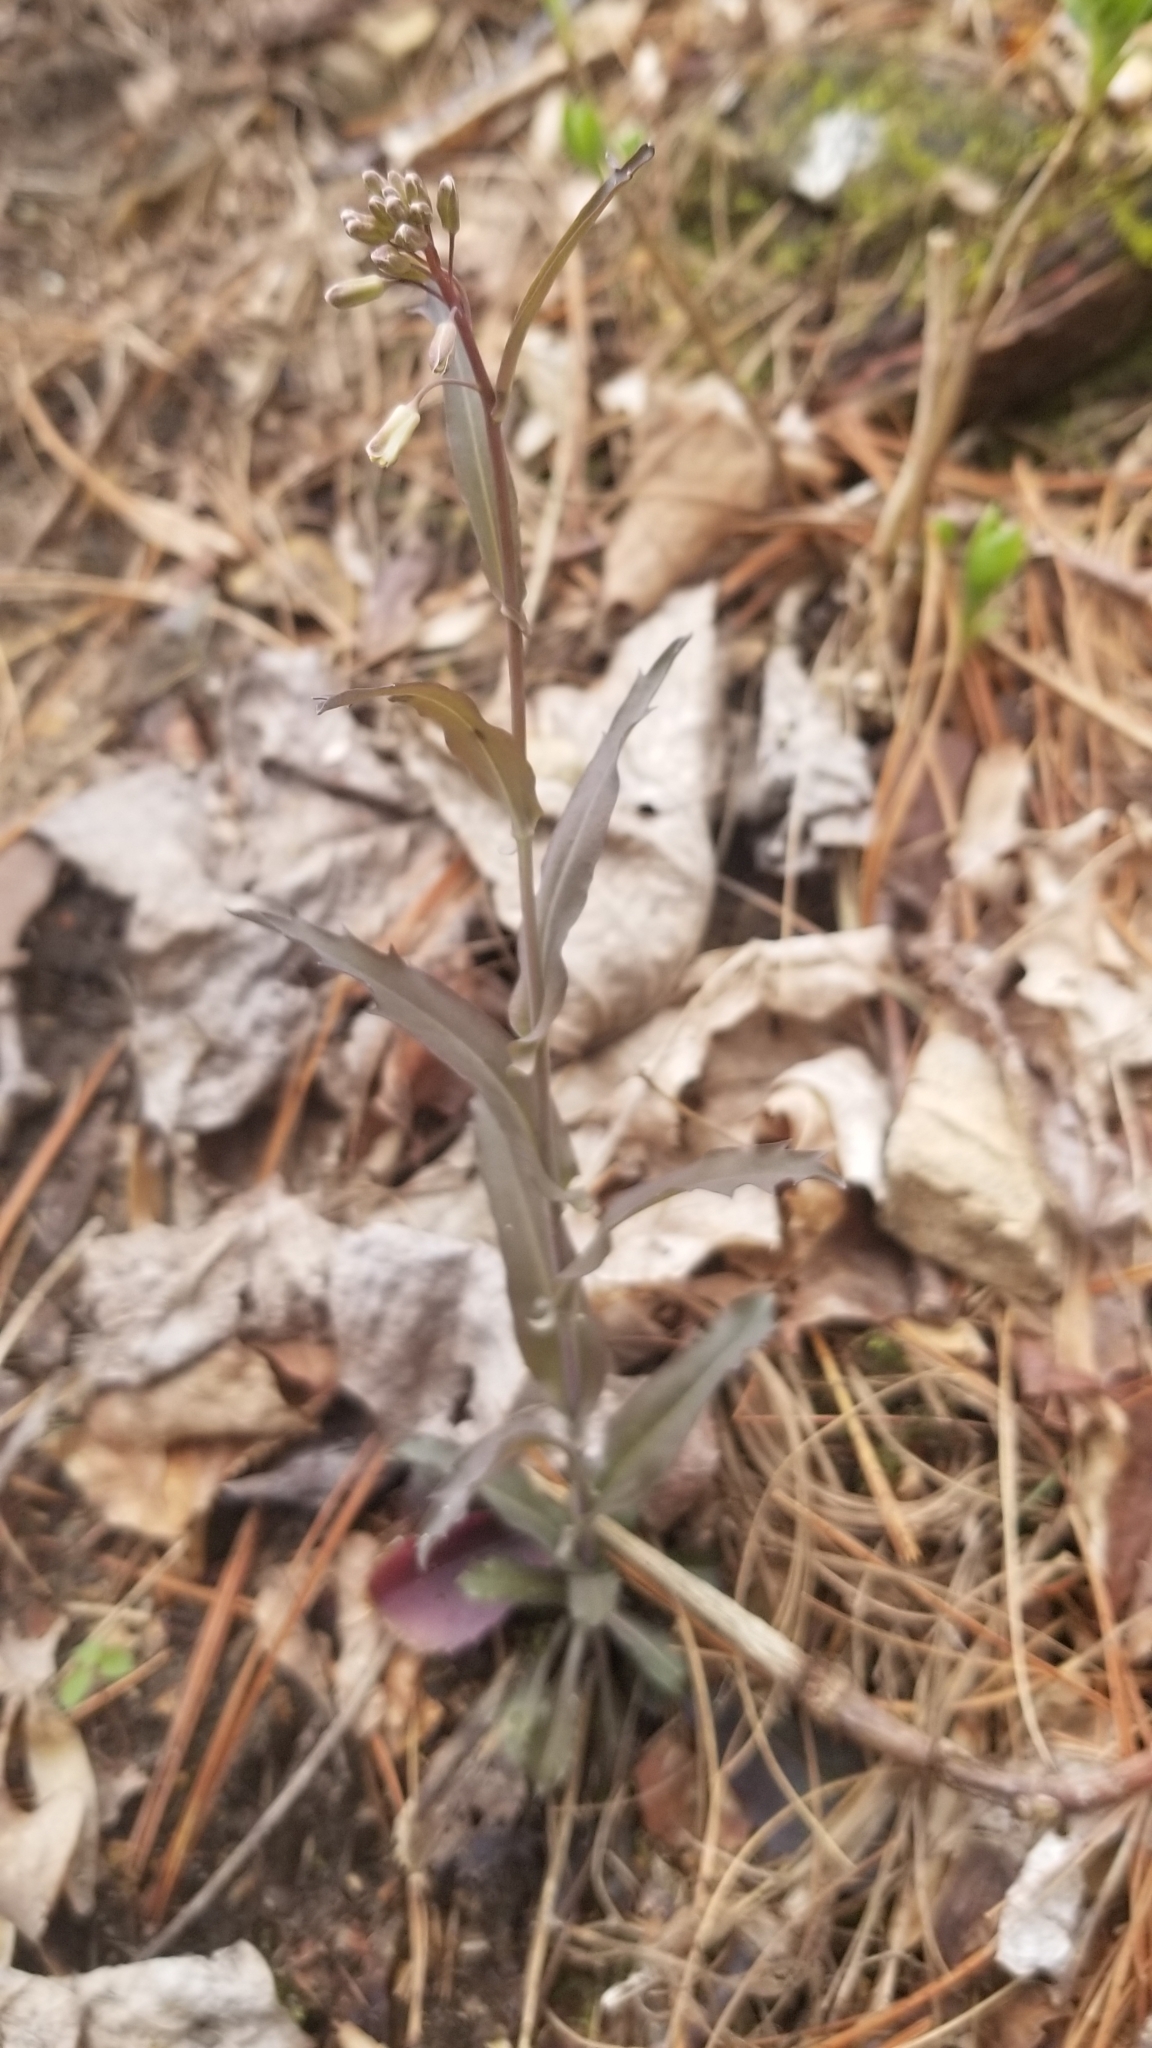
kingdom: Plantae
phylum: Tracheophyta
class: Magnoliopsida
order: Brassicales
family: Brassicaceae
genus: Borodinia
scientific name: Borodinia laevigata
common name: Smooth rockcress
